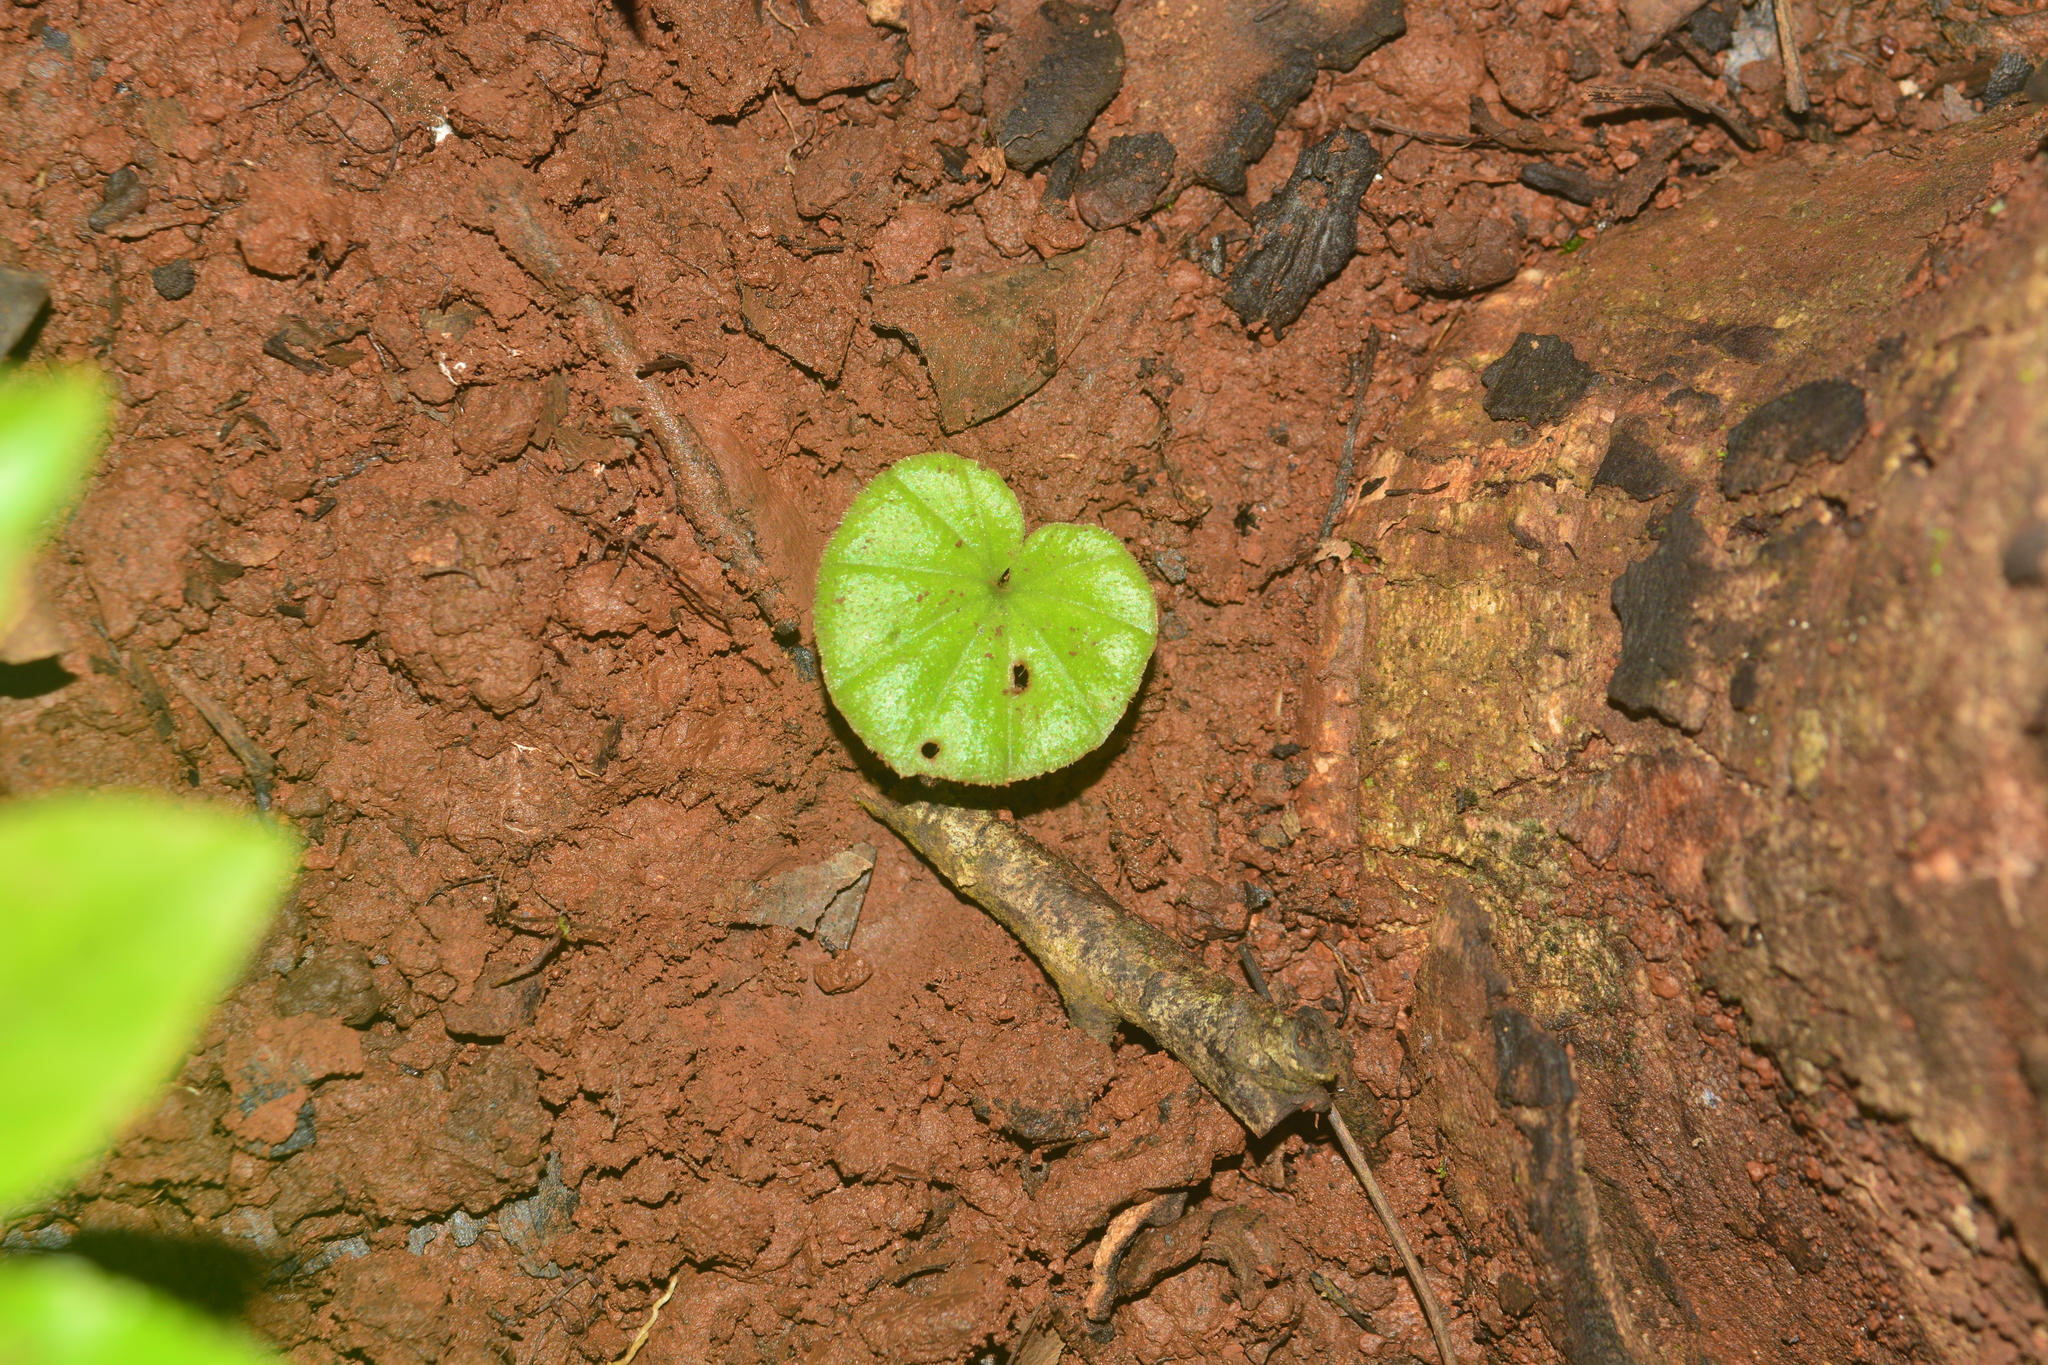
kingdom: Plantae
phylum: Tracheophyta
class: Liliopsida
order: Asparagales
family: Orchidaceae
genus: Nervilia
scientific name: Nervilia simplex
